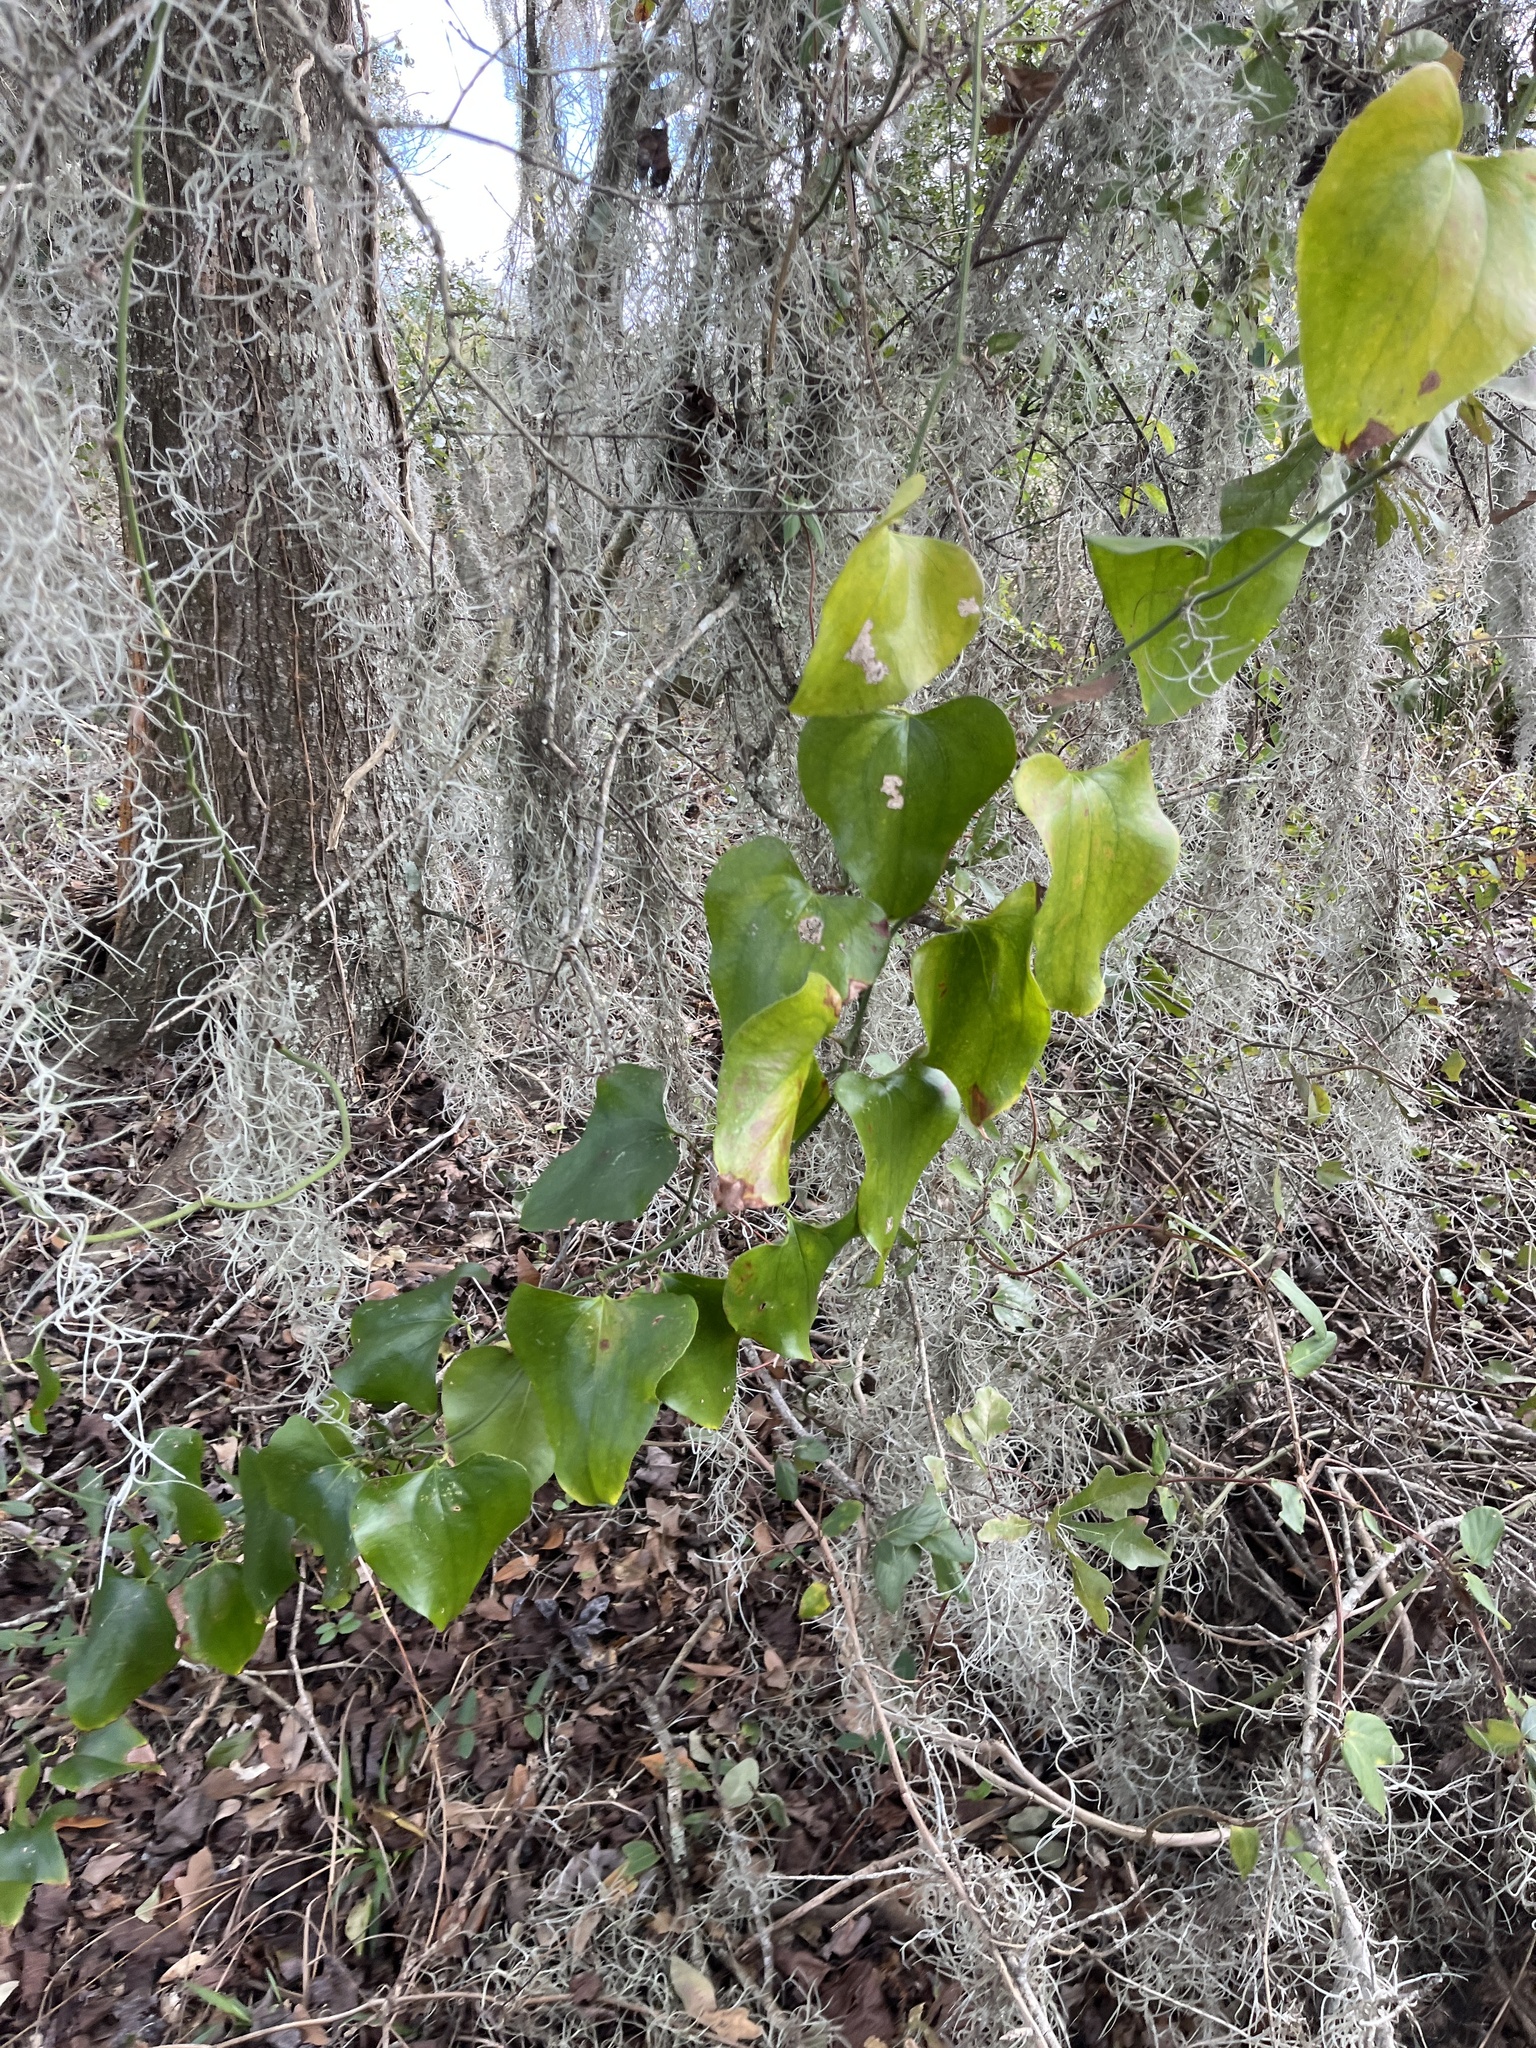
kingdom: Plantae
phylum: Tracheophyta
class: Liliopsida
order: Liliales
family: Smilacaceae
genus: Smilax
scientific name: Smilax bona-nox
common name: Catbrier
